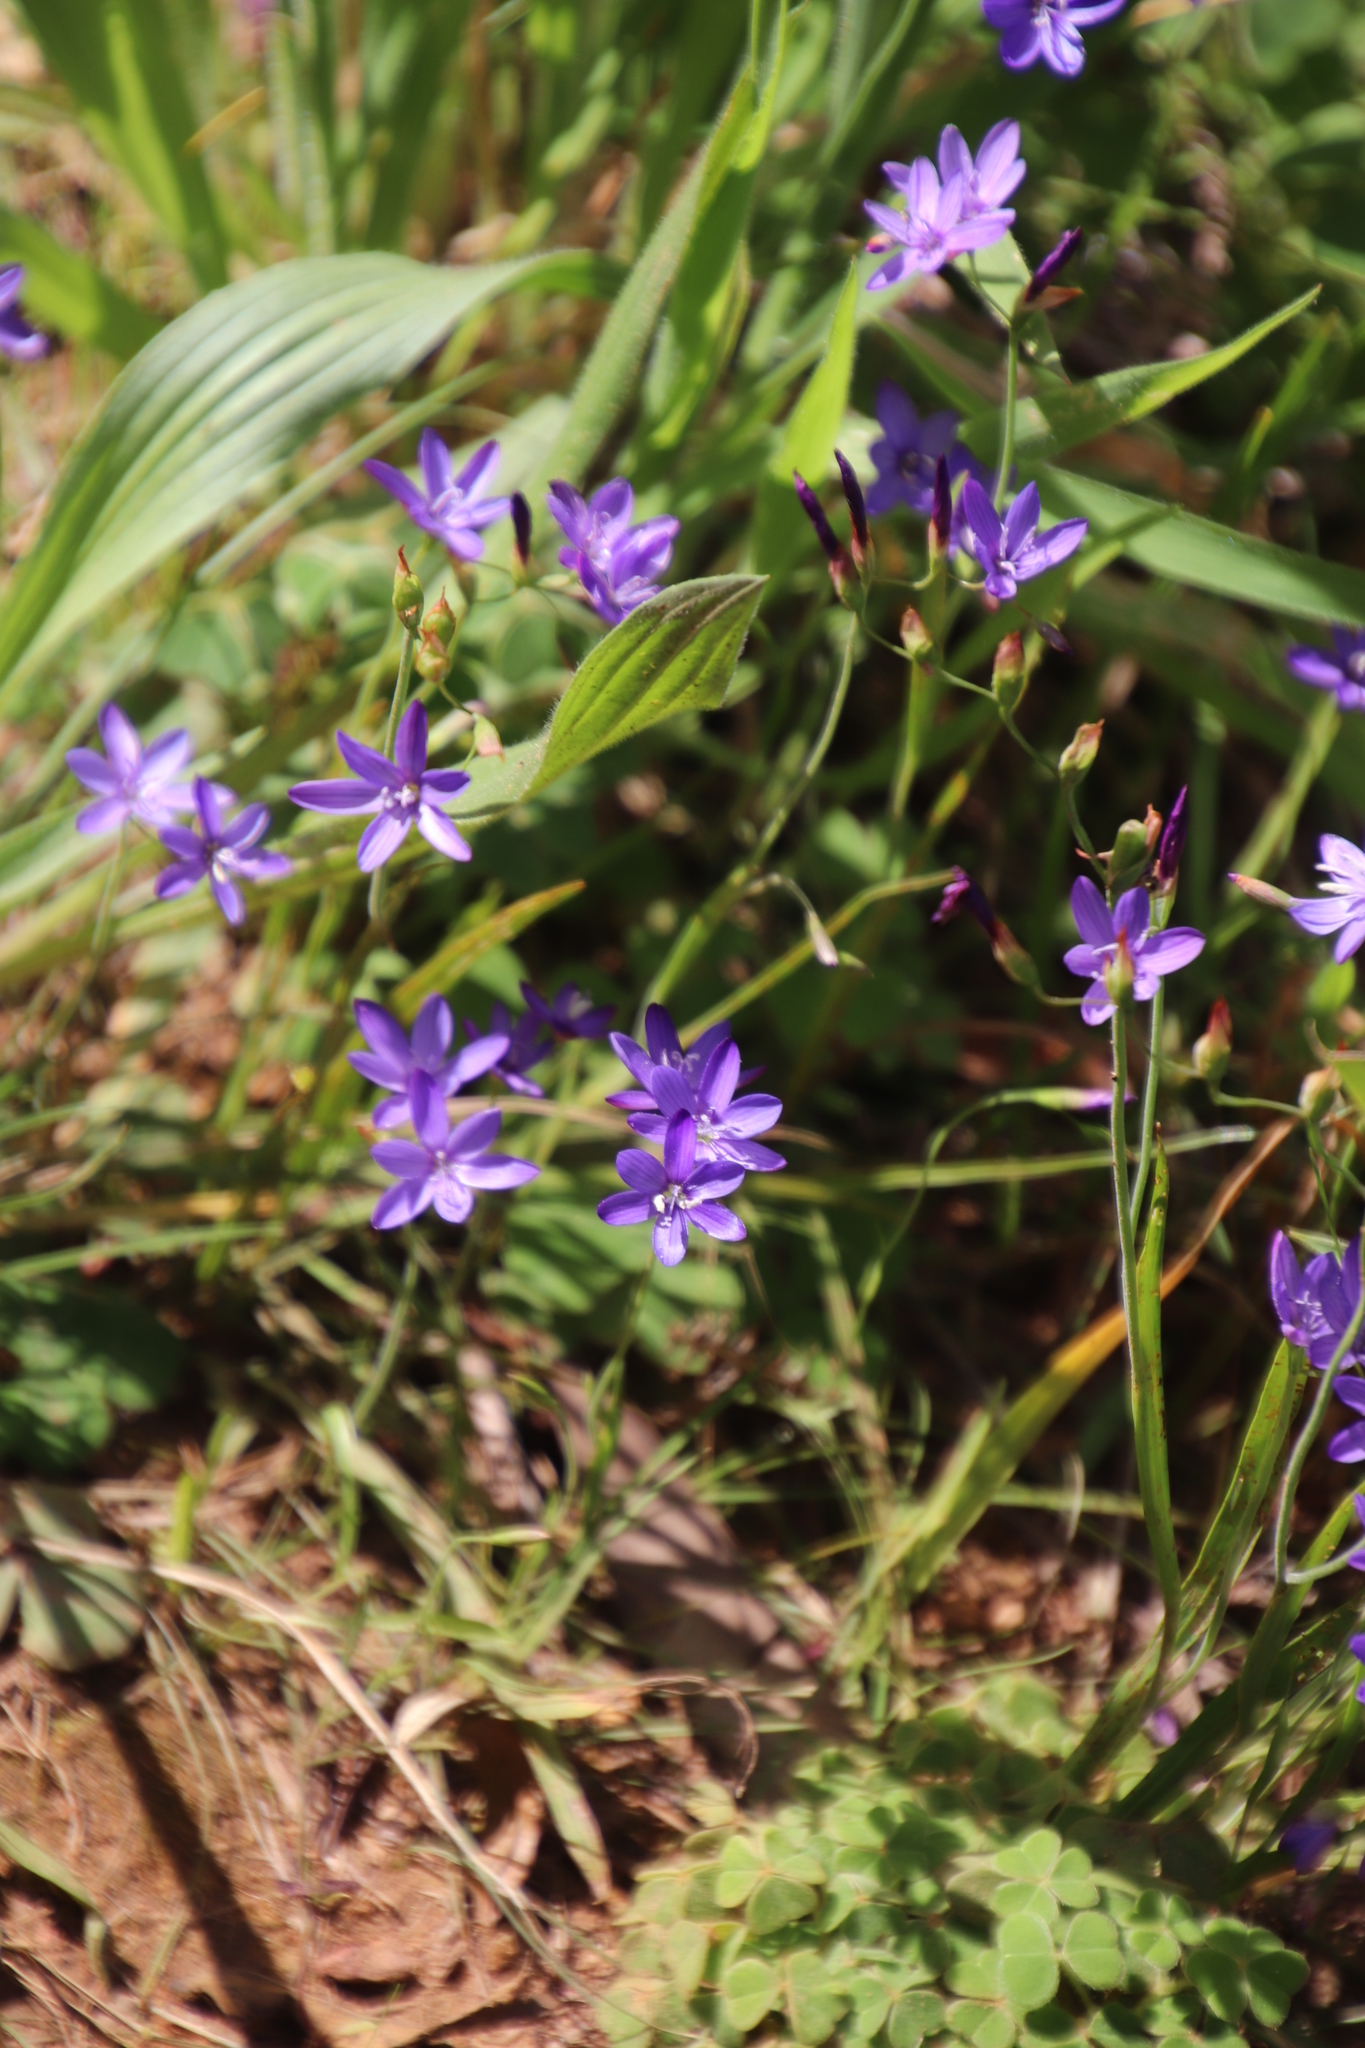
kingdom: Plantae
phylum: Tracheophyta
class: Liliopsida
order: Asparagales
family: Iridaceae
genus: Geissorhiza
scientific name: Geissorhiza aspera
